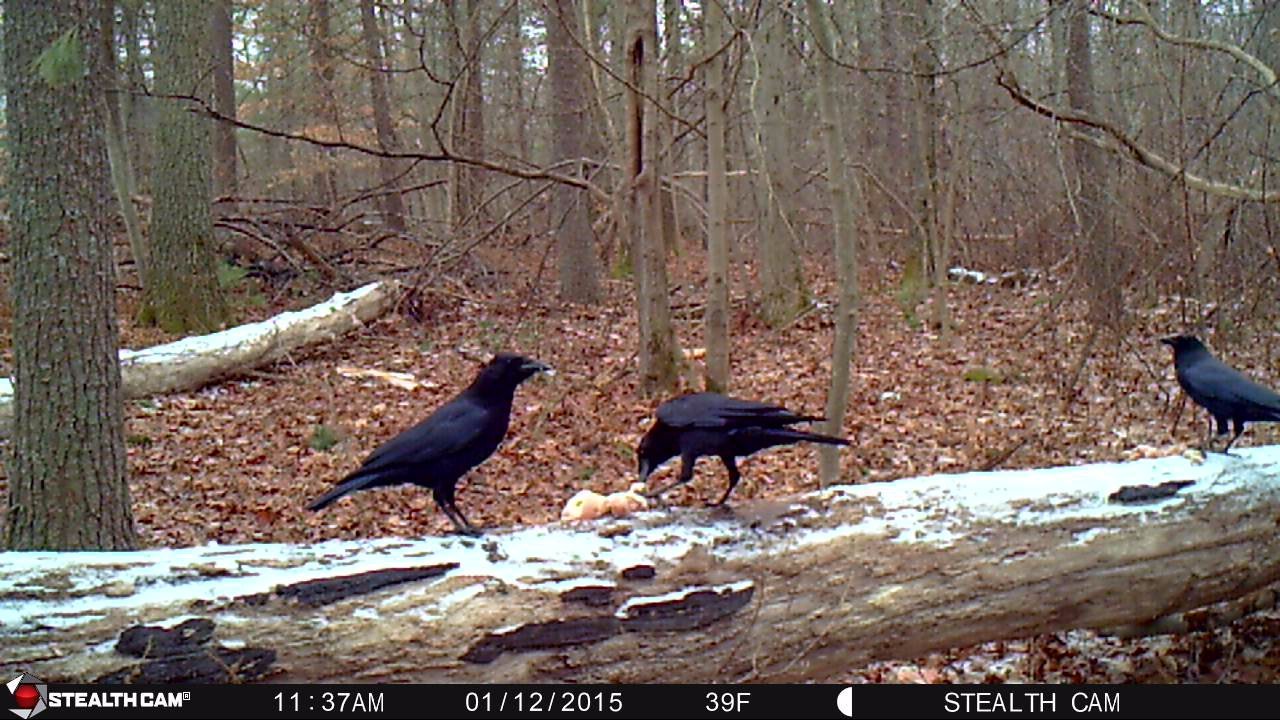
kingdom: Animalia
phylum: Chordata
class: Aves
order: Passeriformes
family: Corvidae
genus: Corvus
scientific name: Corvus brachyrhynchos
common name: American crow
